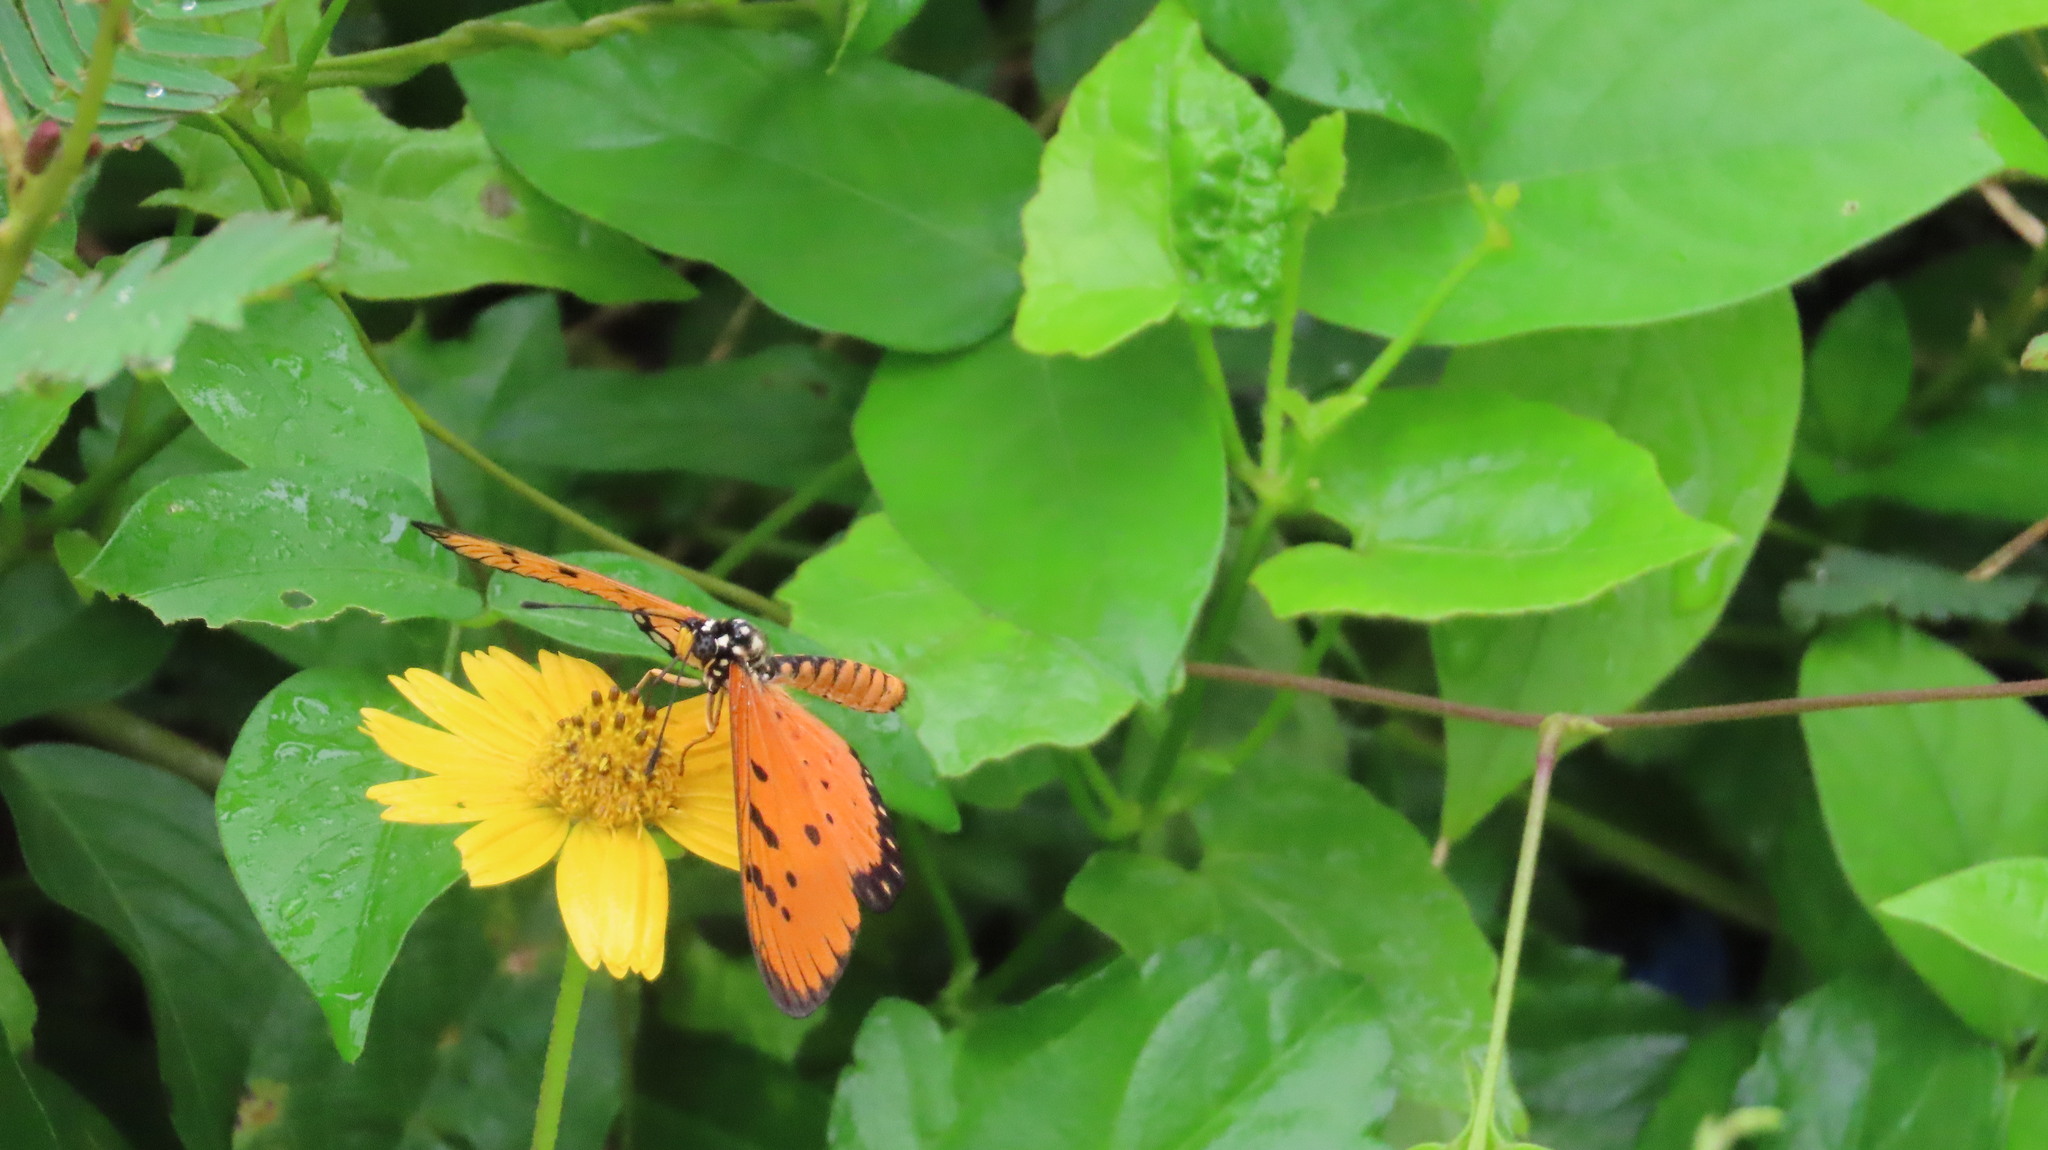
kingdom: Animalia
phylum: Arthropoda
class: Insecta
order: Lepidoptera
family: Nymphalidae
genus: Acraea
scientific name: Acraea terpsicore
